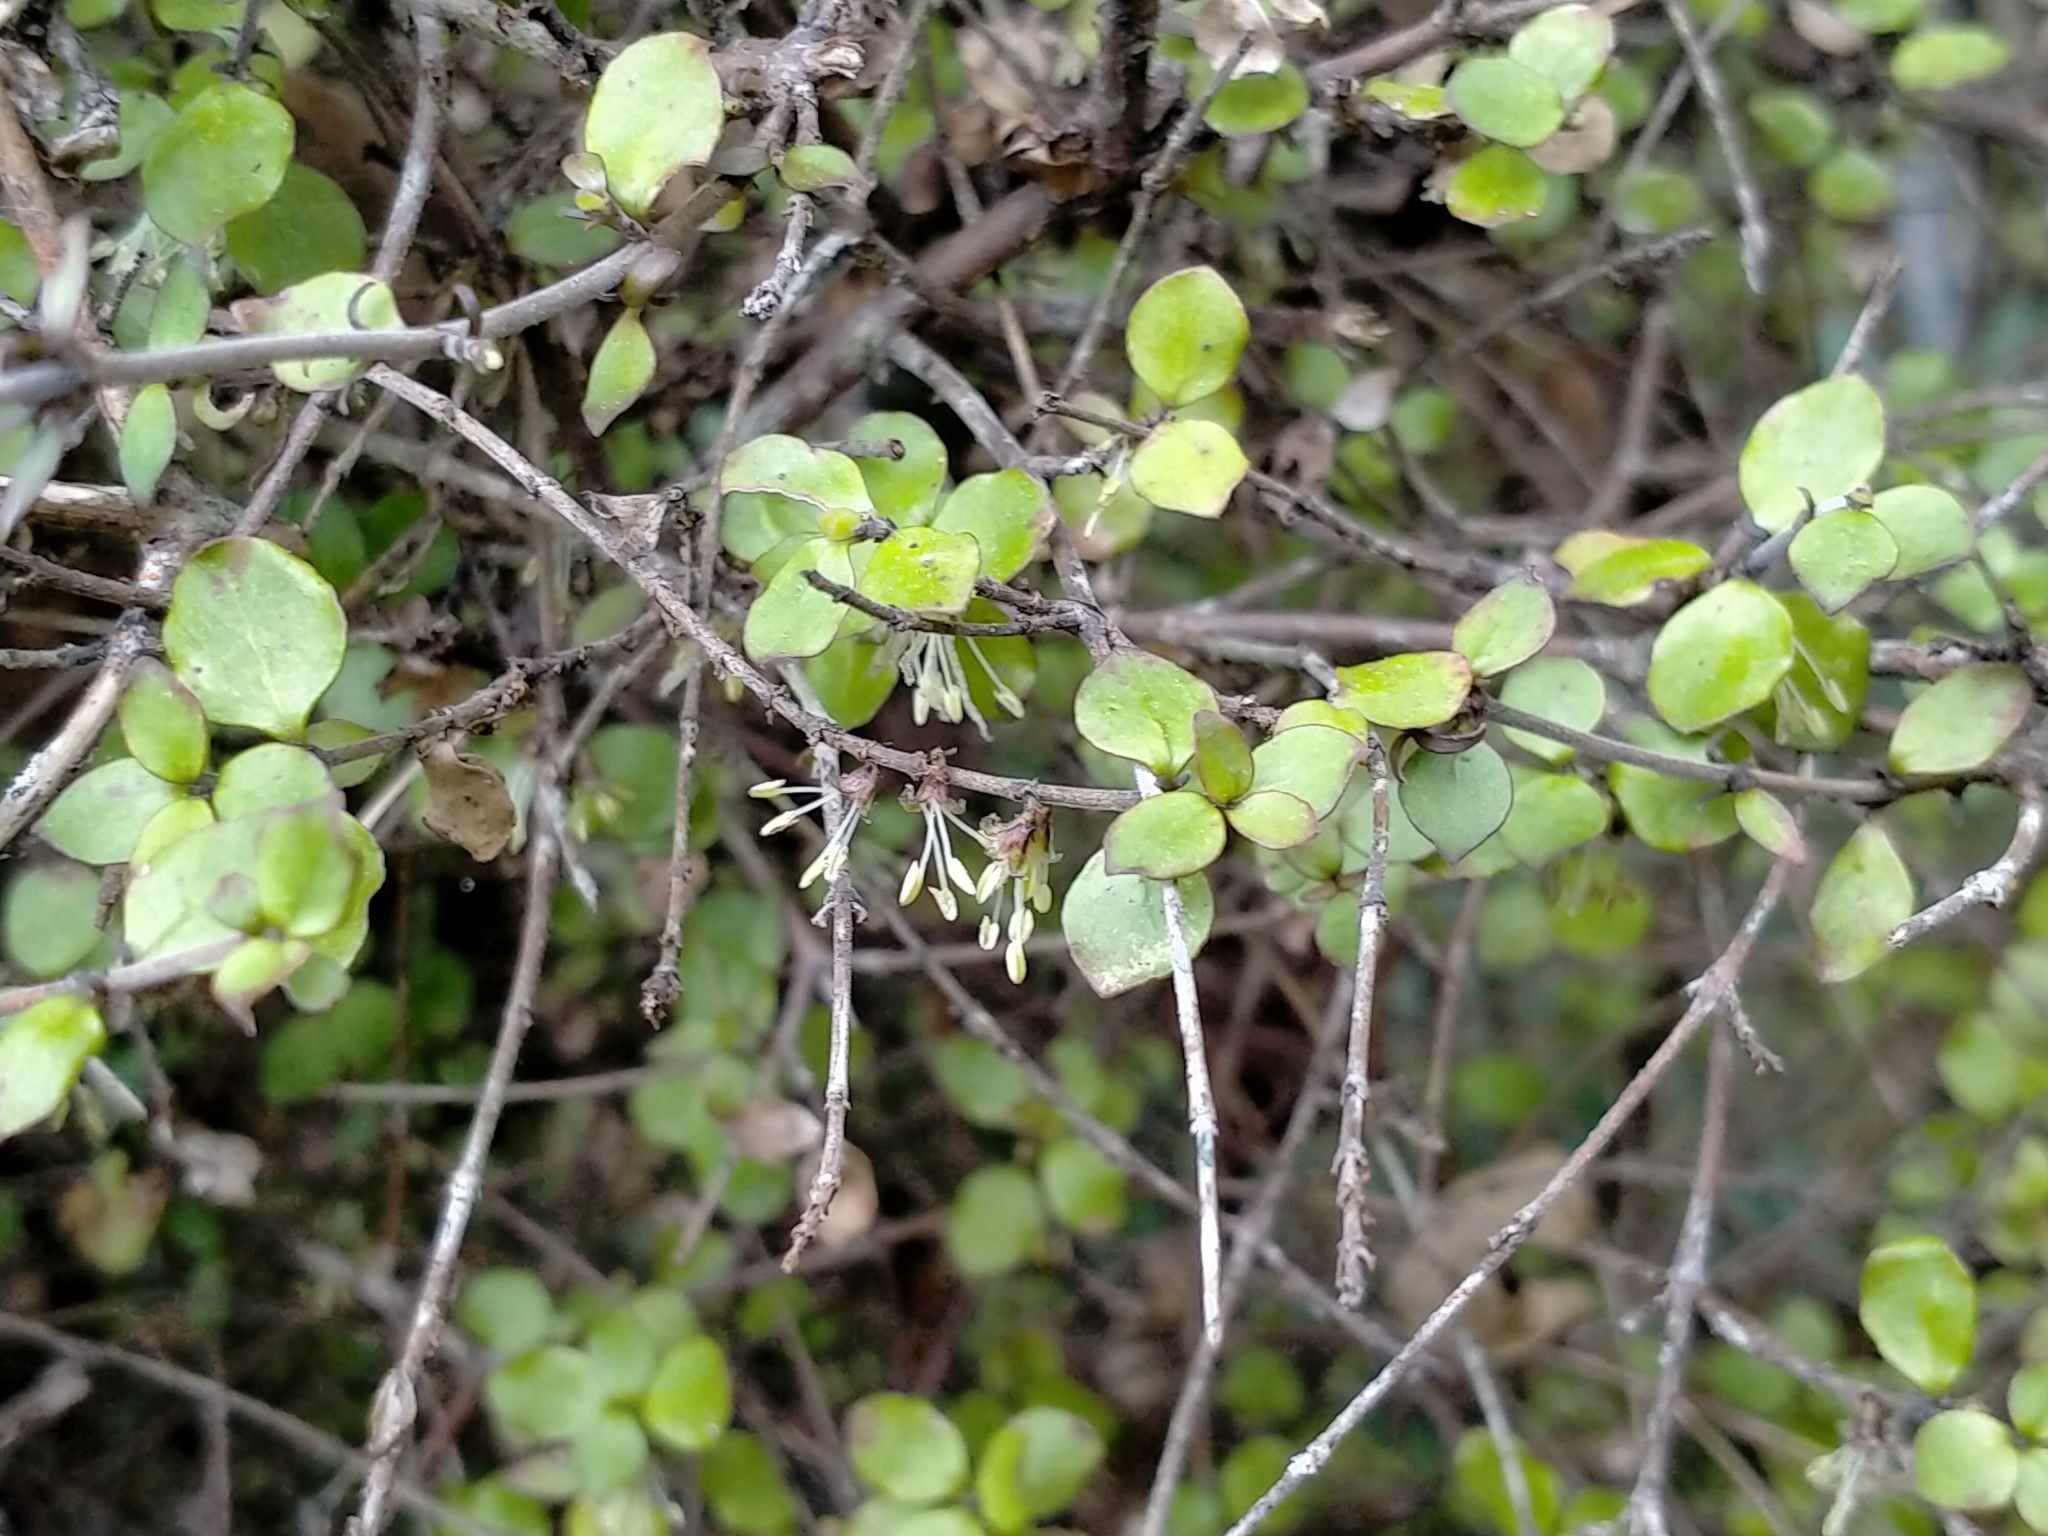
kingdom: Plantae
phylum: Tracheophyta
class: Magnoliopsida
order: Gentianales
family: Rubiaceae
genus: Coprosma
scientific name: Coprosma rhamnoides
